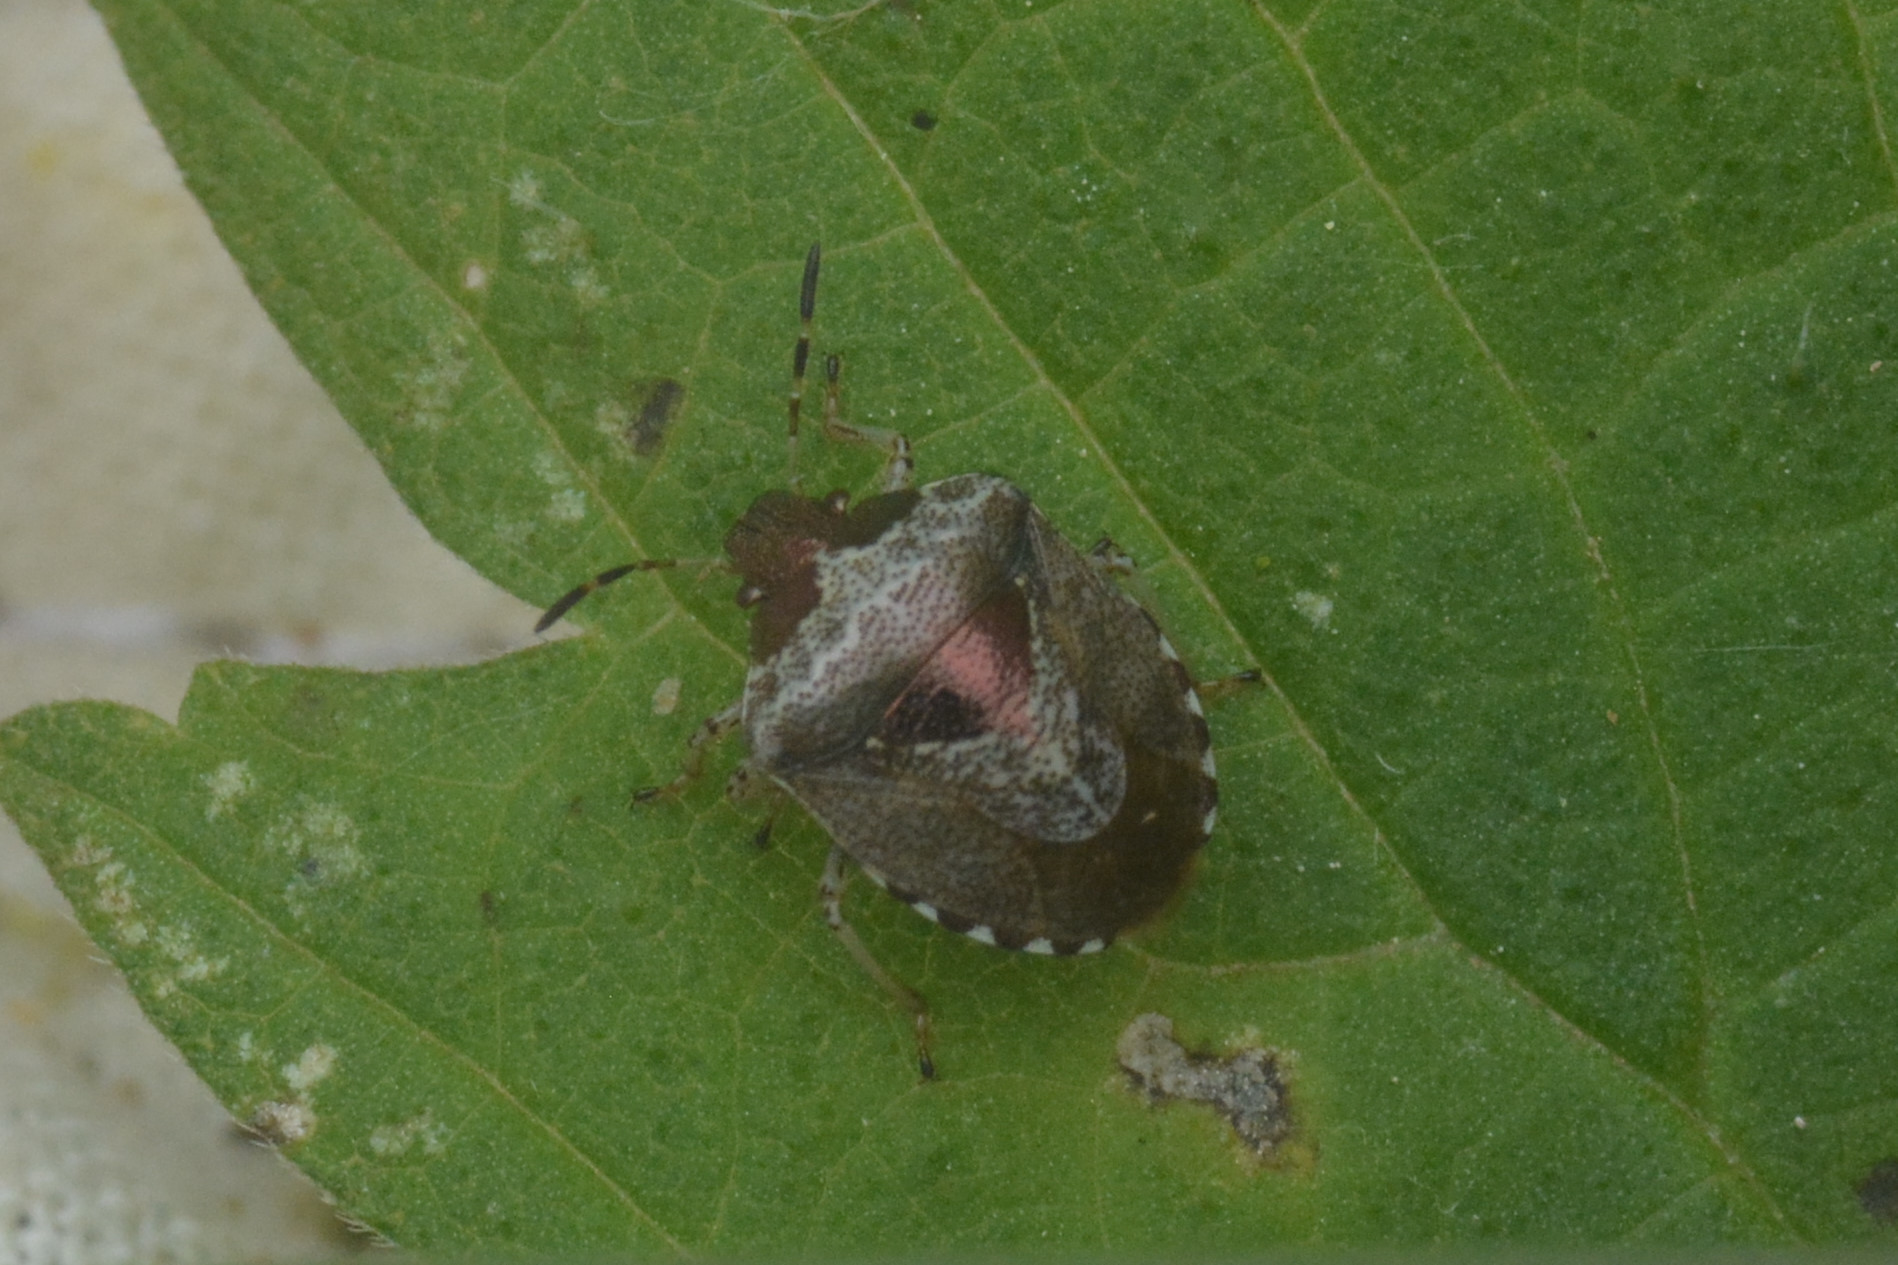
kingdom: Animalia
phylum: Arthropoda
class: Insecta
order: Hemiptera
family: Pentatomidae
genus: Eysarcoris
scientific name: Eysarcoris venustissimus
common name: Woundwort shieldbug
